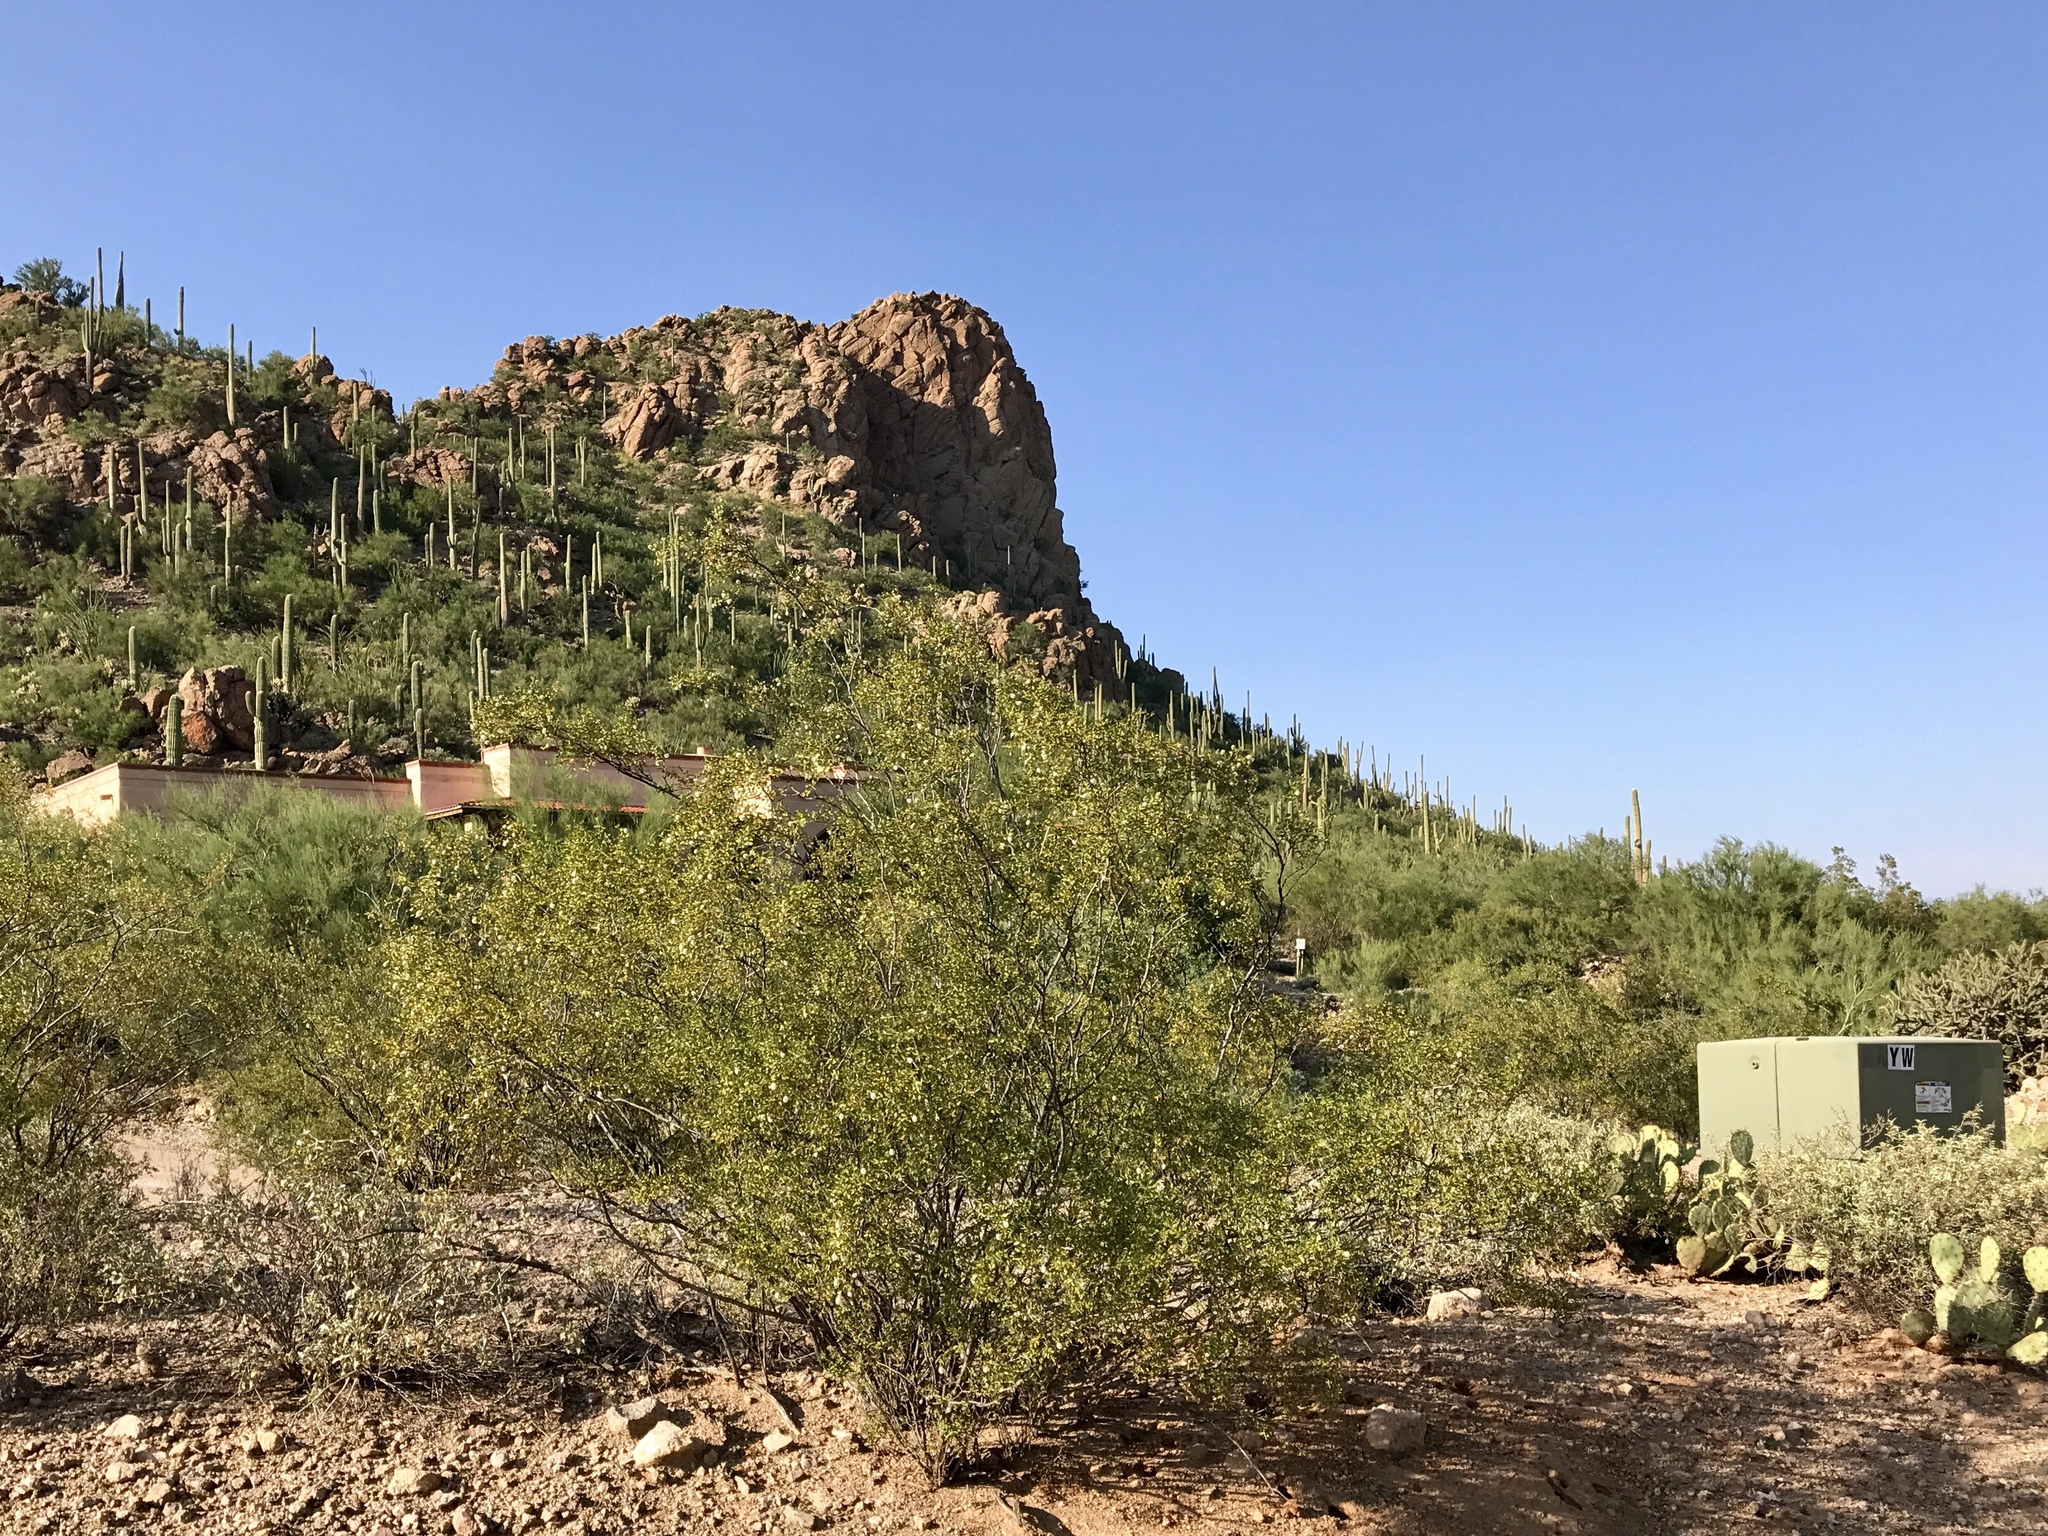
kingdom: Plantae
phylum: Tracheophyta
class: Magnoliopsida
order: Zygophyllales
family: Zygophyllaceae
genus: Larrea
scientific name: Larrea tridentata
